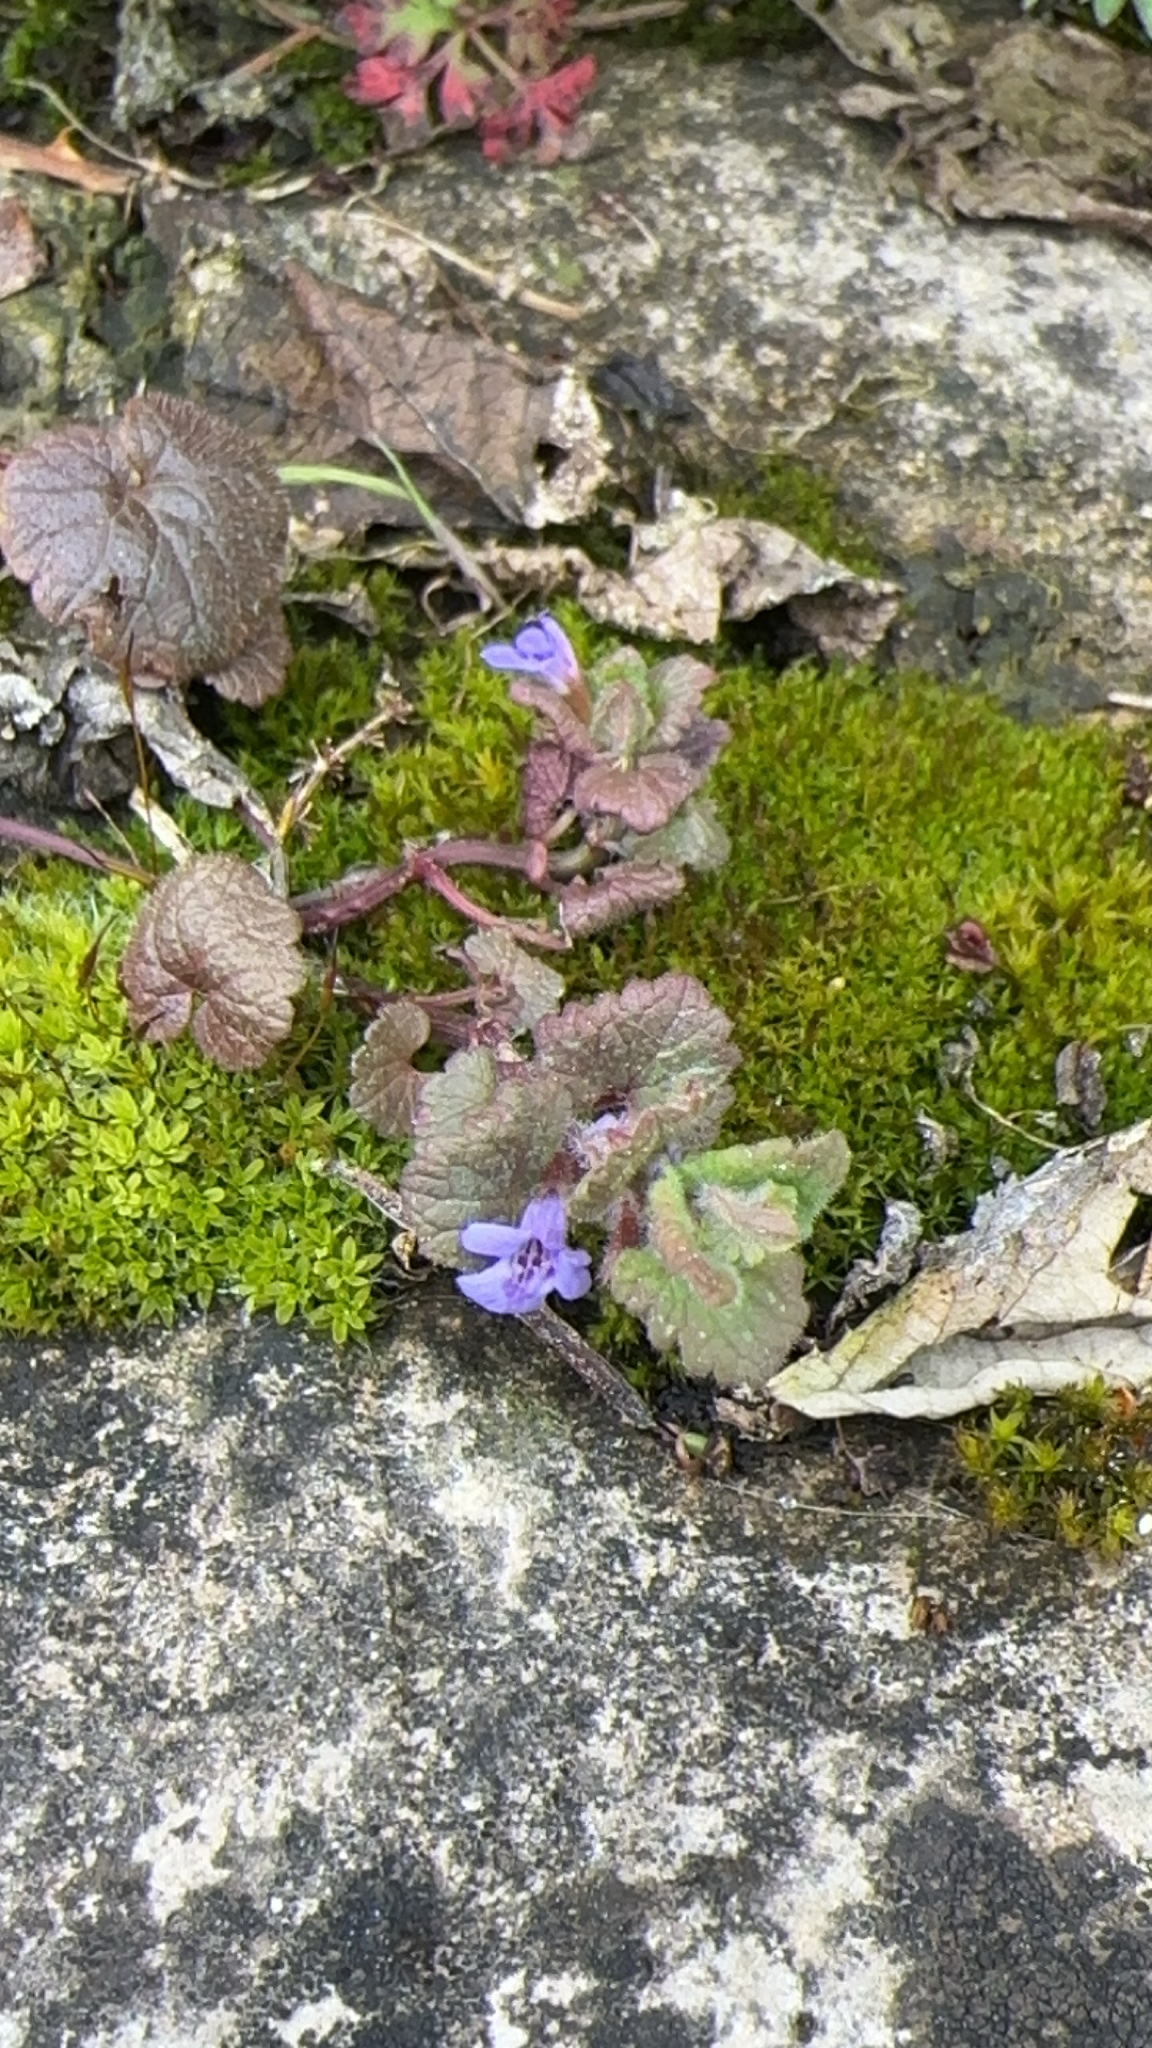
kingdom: Plantae
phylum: Tracheophyta
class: Magnoliopsida
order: Lamiales
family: Lamiaceae
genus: Glechoma
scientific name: Glechoma hederacea
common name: Ground ivy
